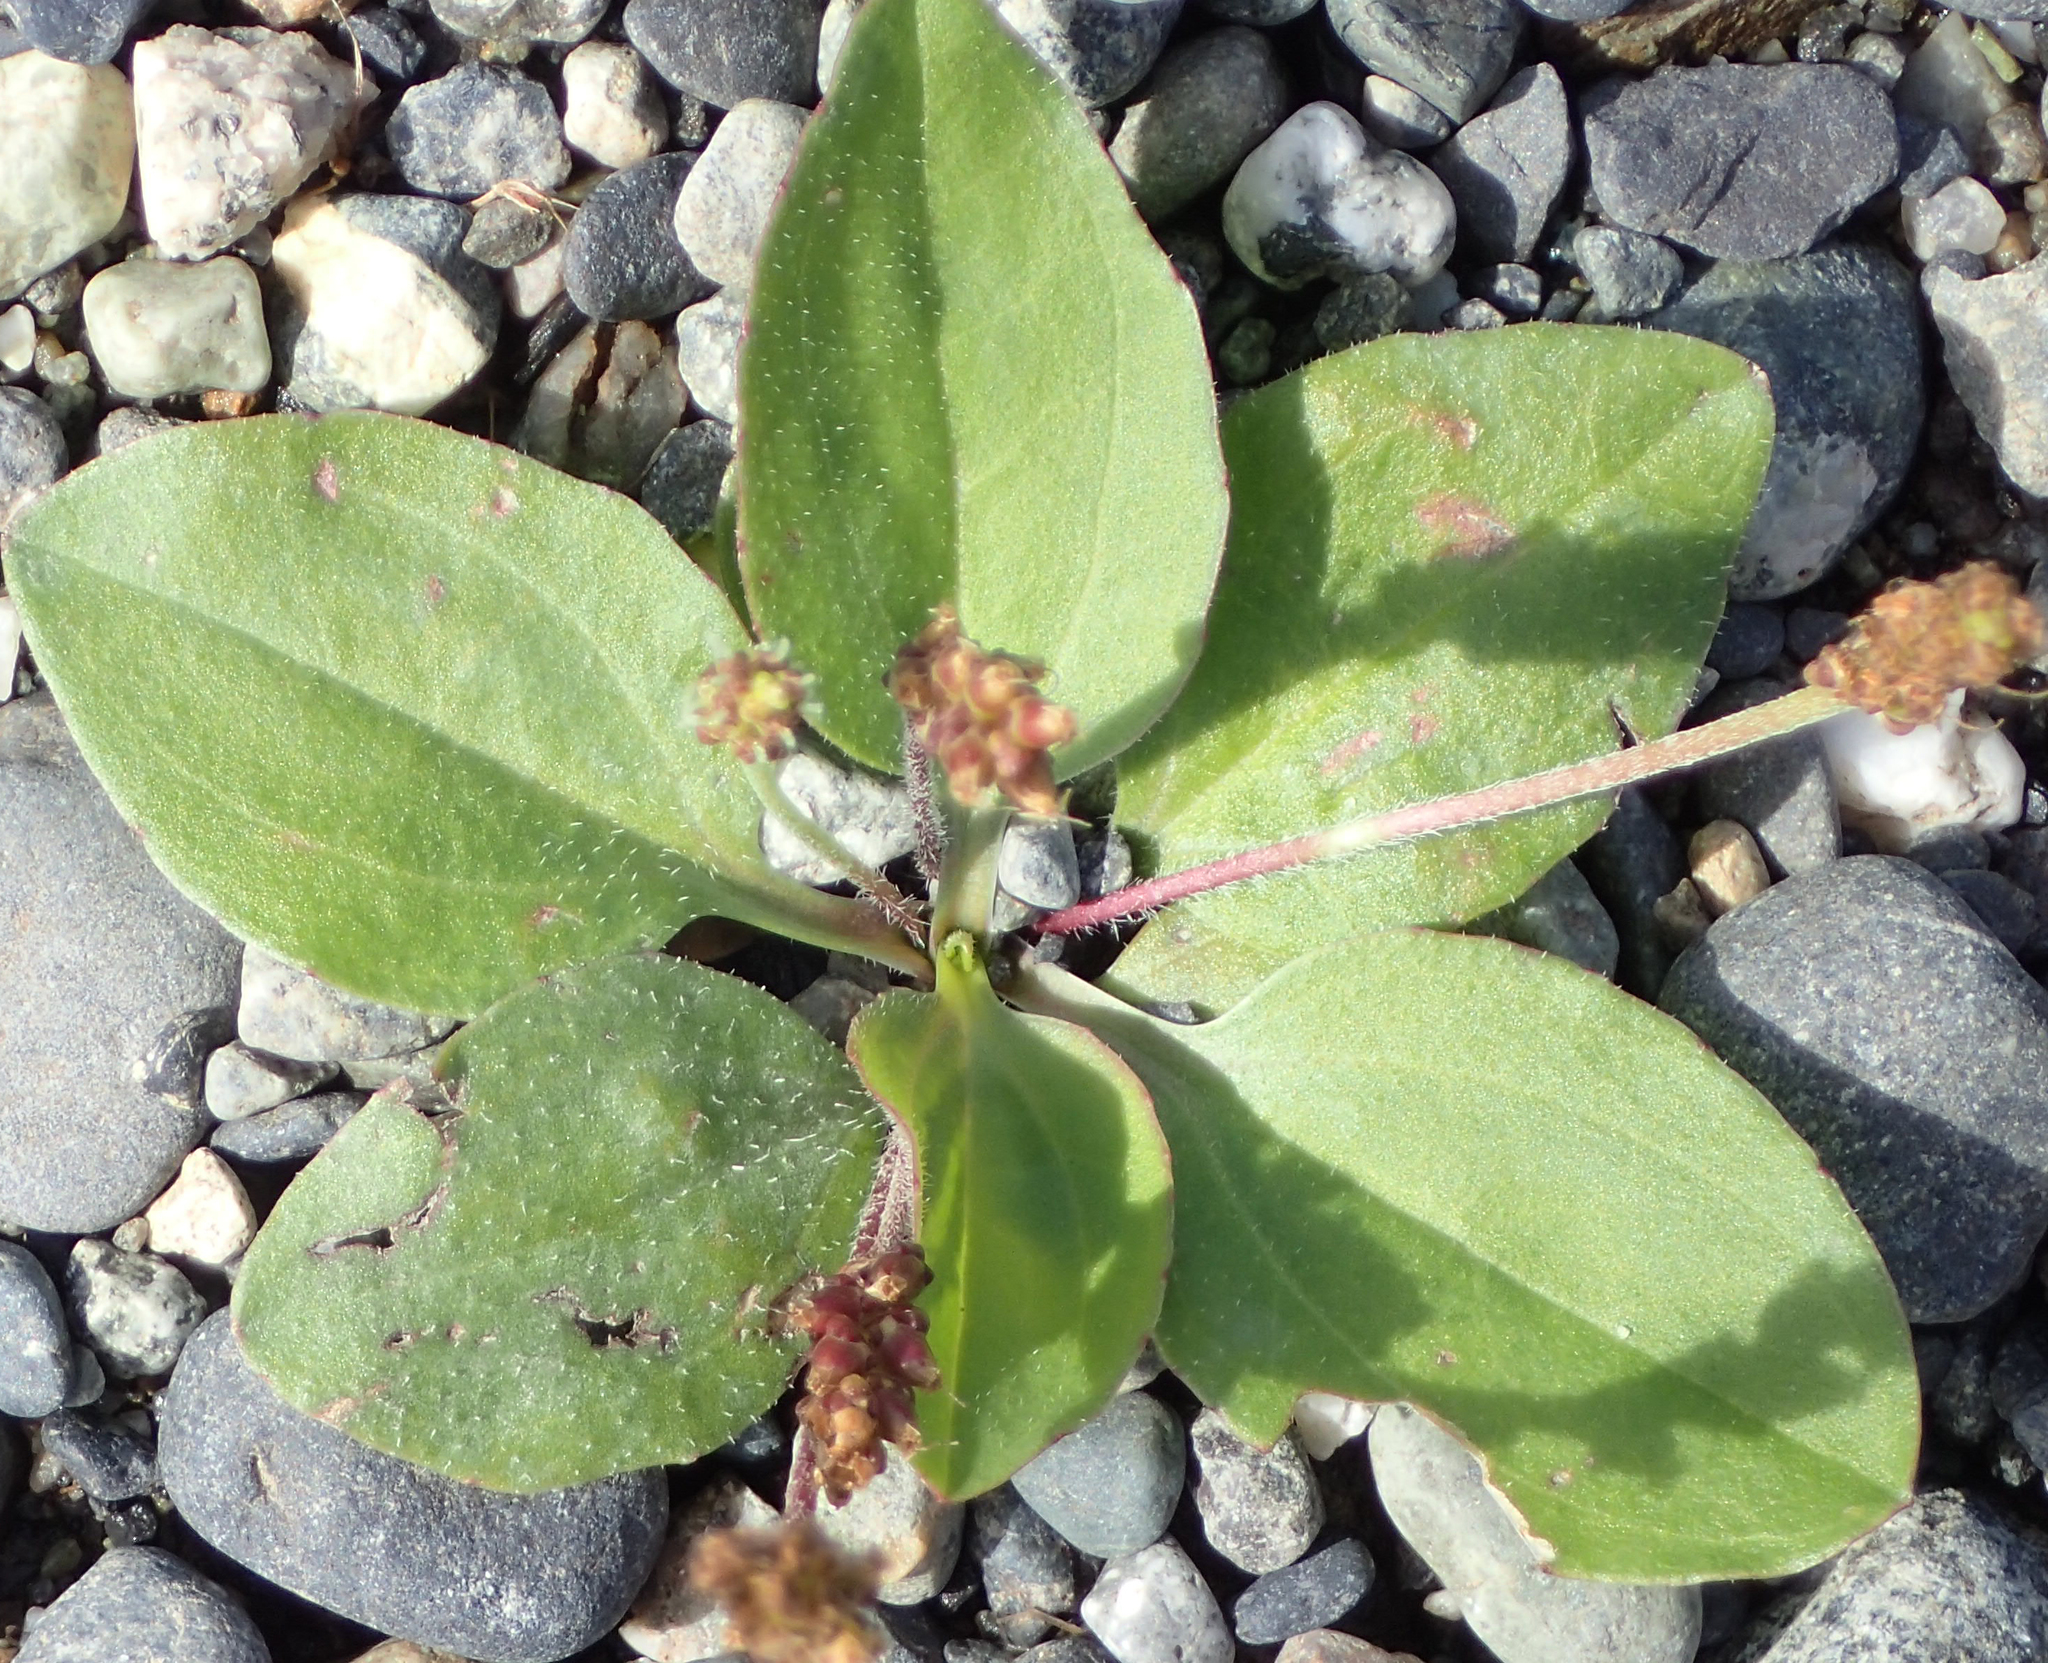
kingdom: Plantae
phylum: Tracheophyta
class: Magnoliopsida
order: Lamiales
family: Plantaginaceae
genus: Plantago
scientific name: Plantago major
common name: Common plantain
